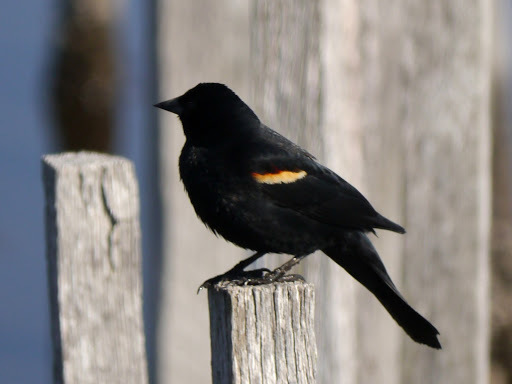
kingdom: Animalia
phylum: Chordata
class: Aves
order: Passeriformes
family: Icteridae
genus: Agelaius
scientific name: Agelaius phoeniceus
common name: Red-winged blackbird
